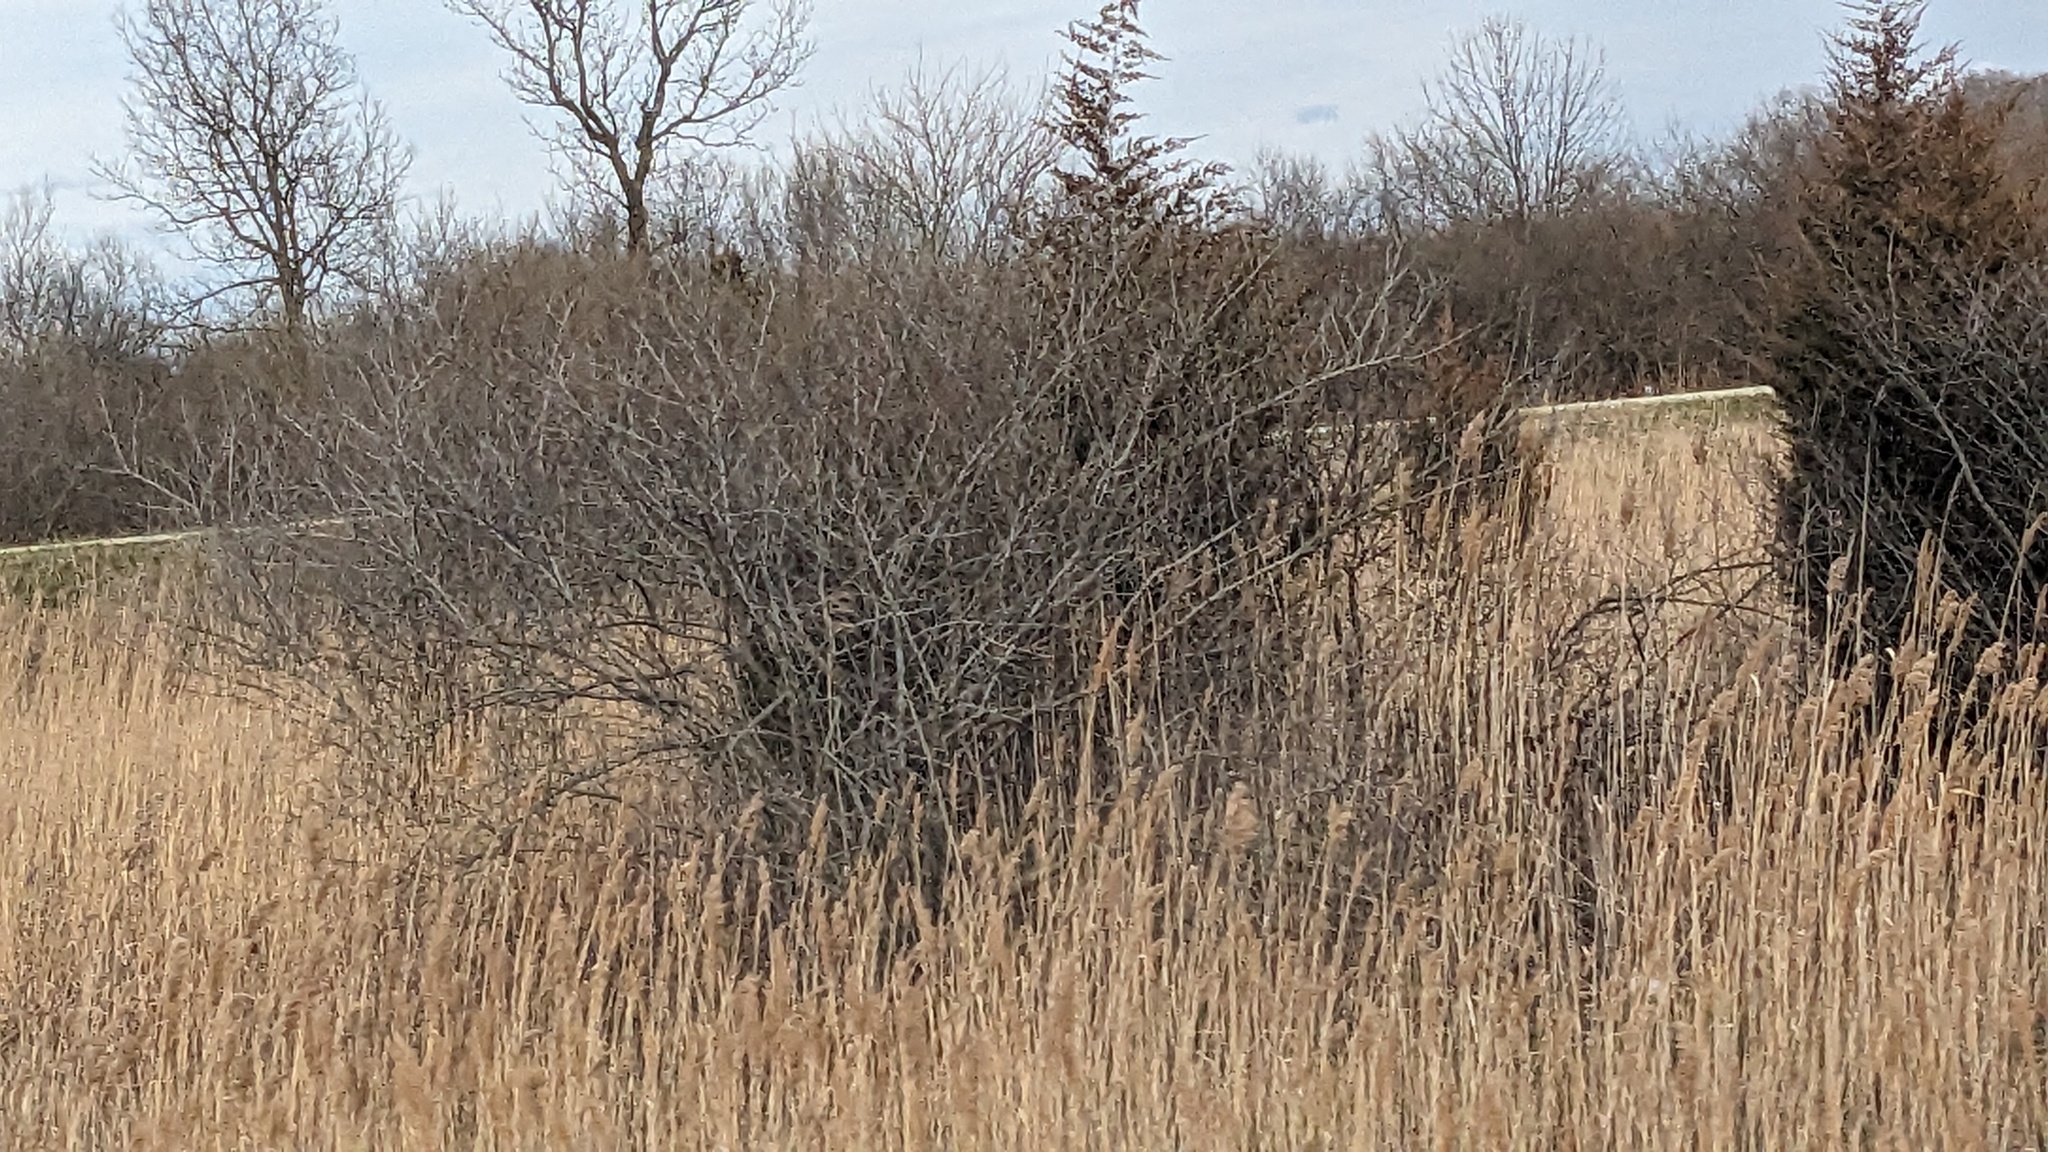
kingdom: Plantae
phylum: Tracheophyta
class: Liliopsida
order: Poales
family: Poaceae
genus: Phragmites
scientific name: Phragmites australis
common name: Common reed
